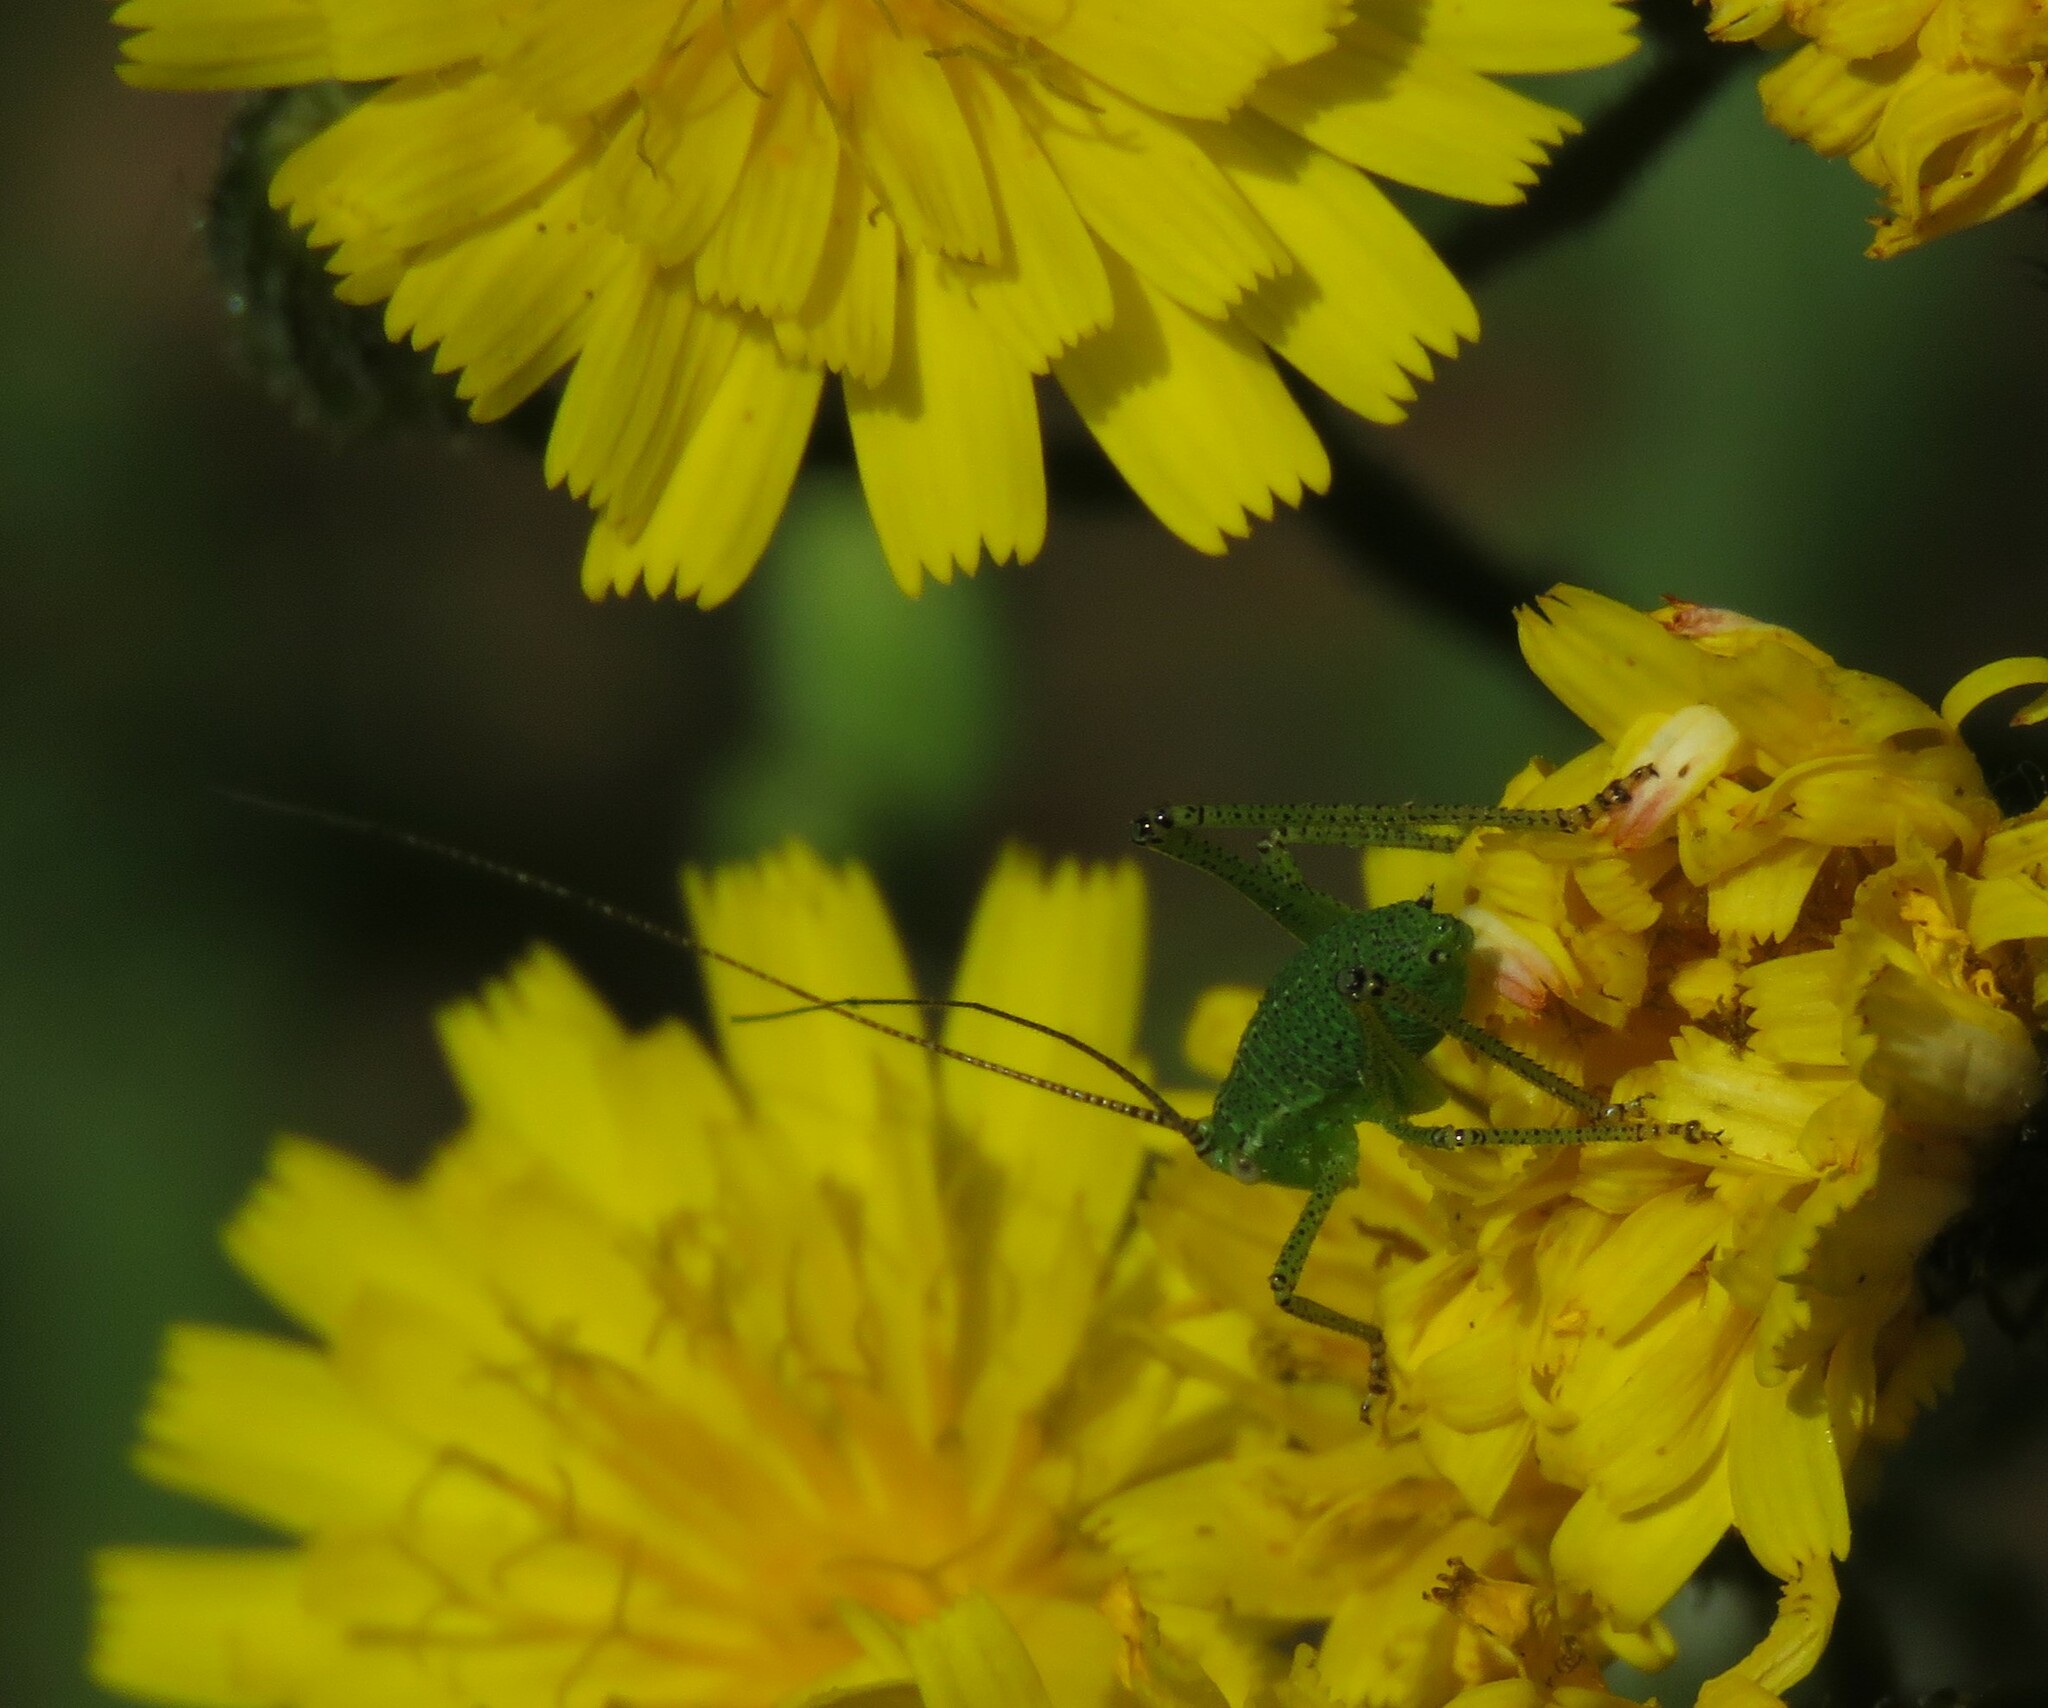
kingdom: Animalia
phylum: Arthropoda
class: Insecta
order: Orthoptera
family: Tettigoniidae
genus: Leptophyes
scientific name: Leptophyes punctatissima
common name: Speckled bush-cricket
